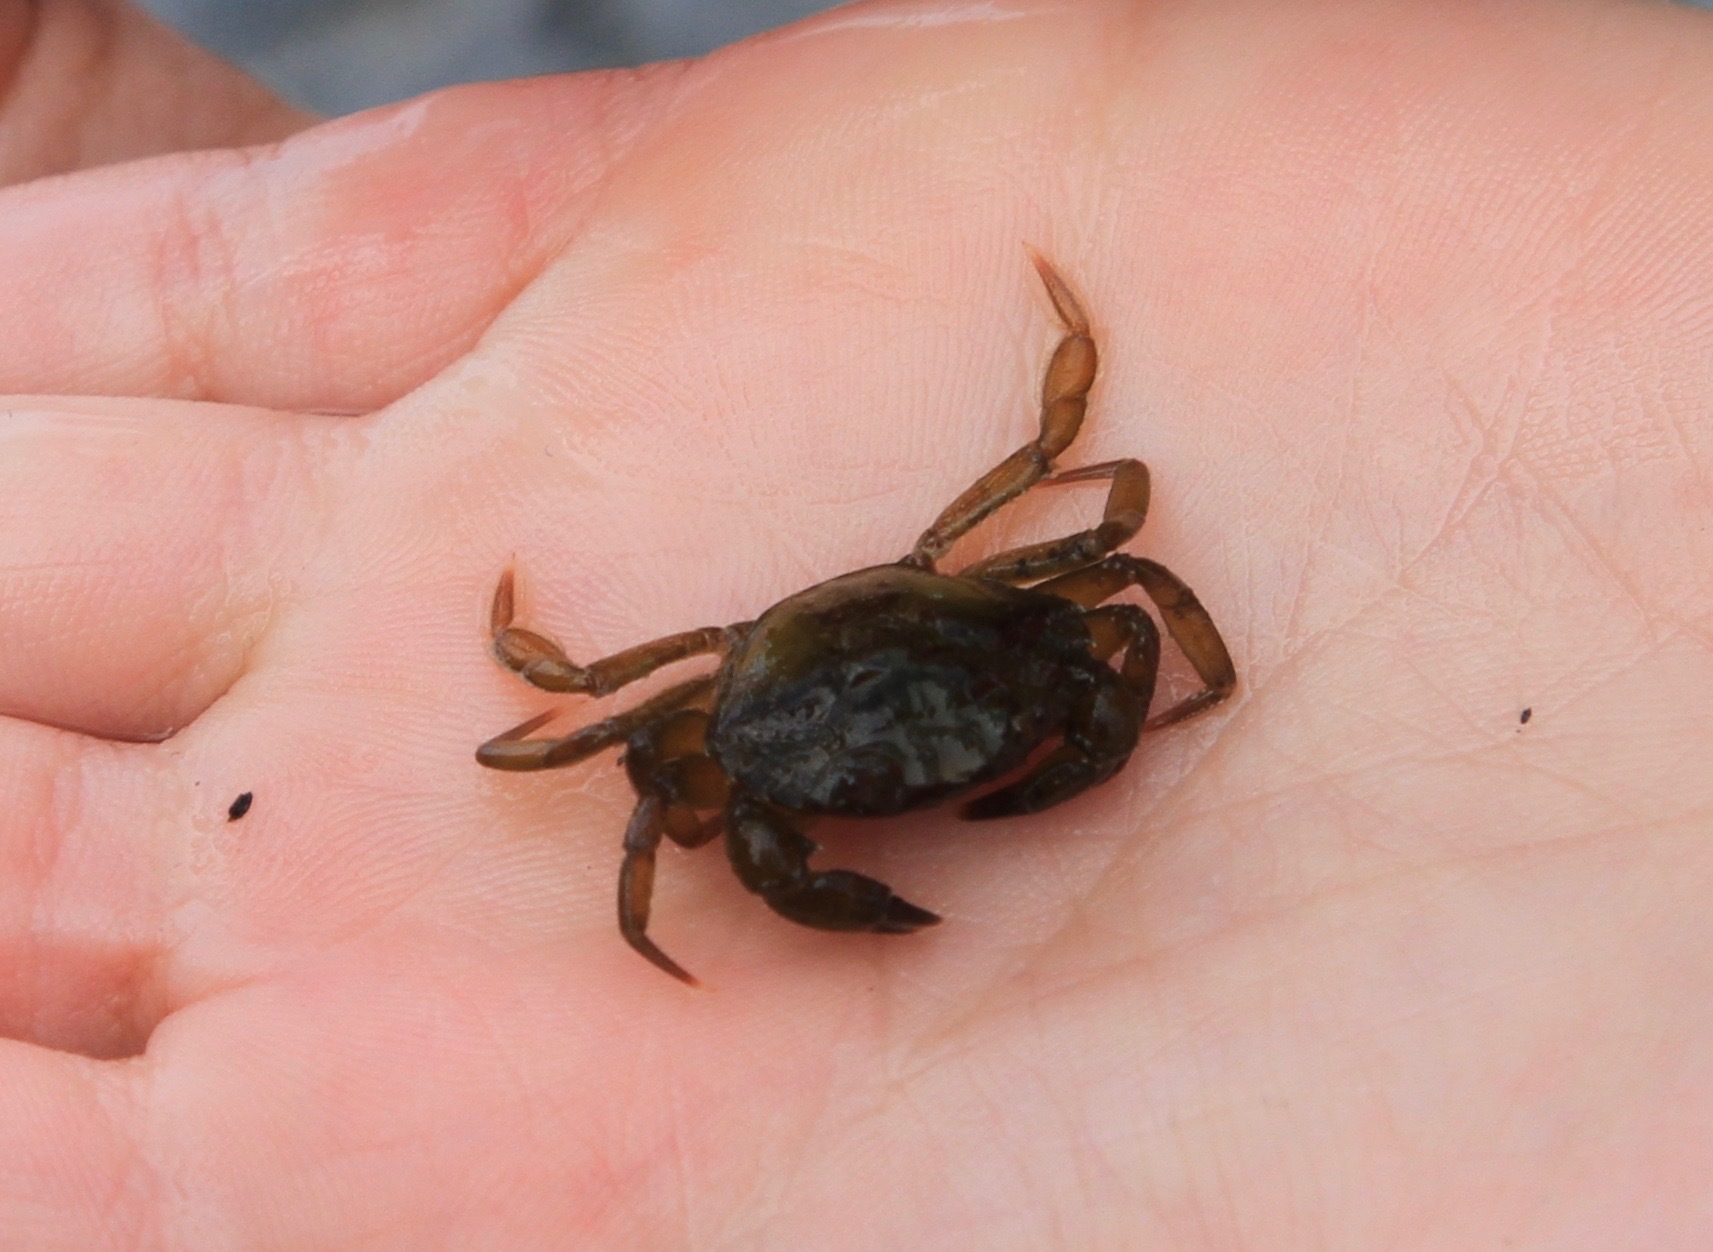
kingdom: Animalia
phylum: Arthropoda
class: Malacostraca
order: Decapoda
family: Carcinidae
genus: Carcinus
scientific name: Carcinus maenas
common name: European green crab
